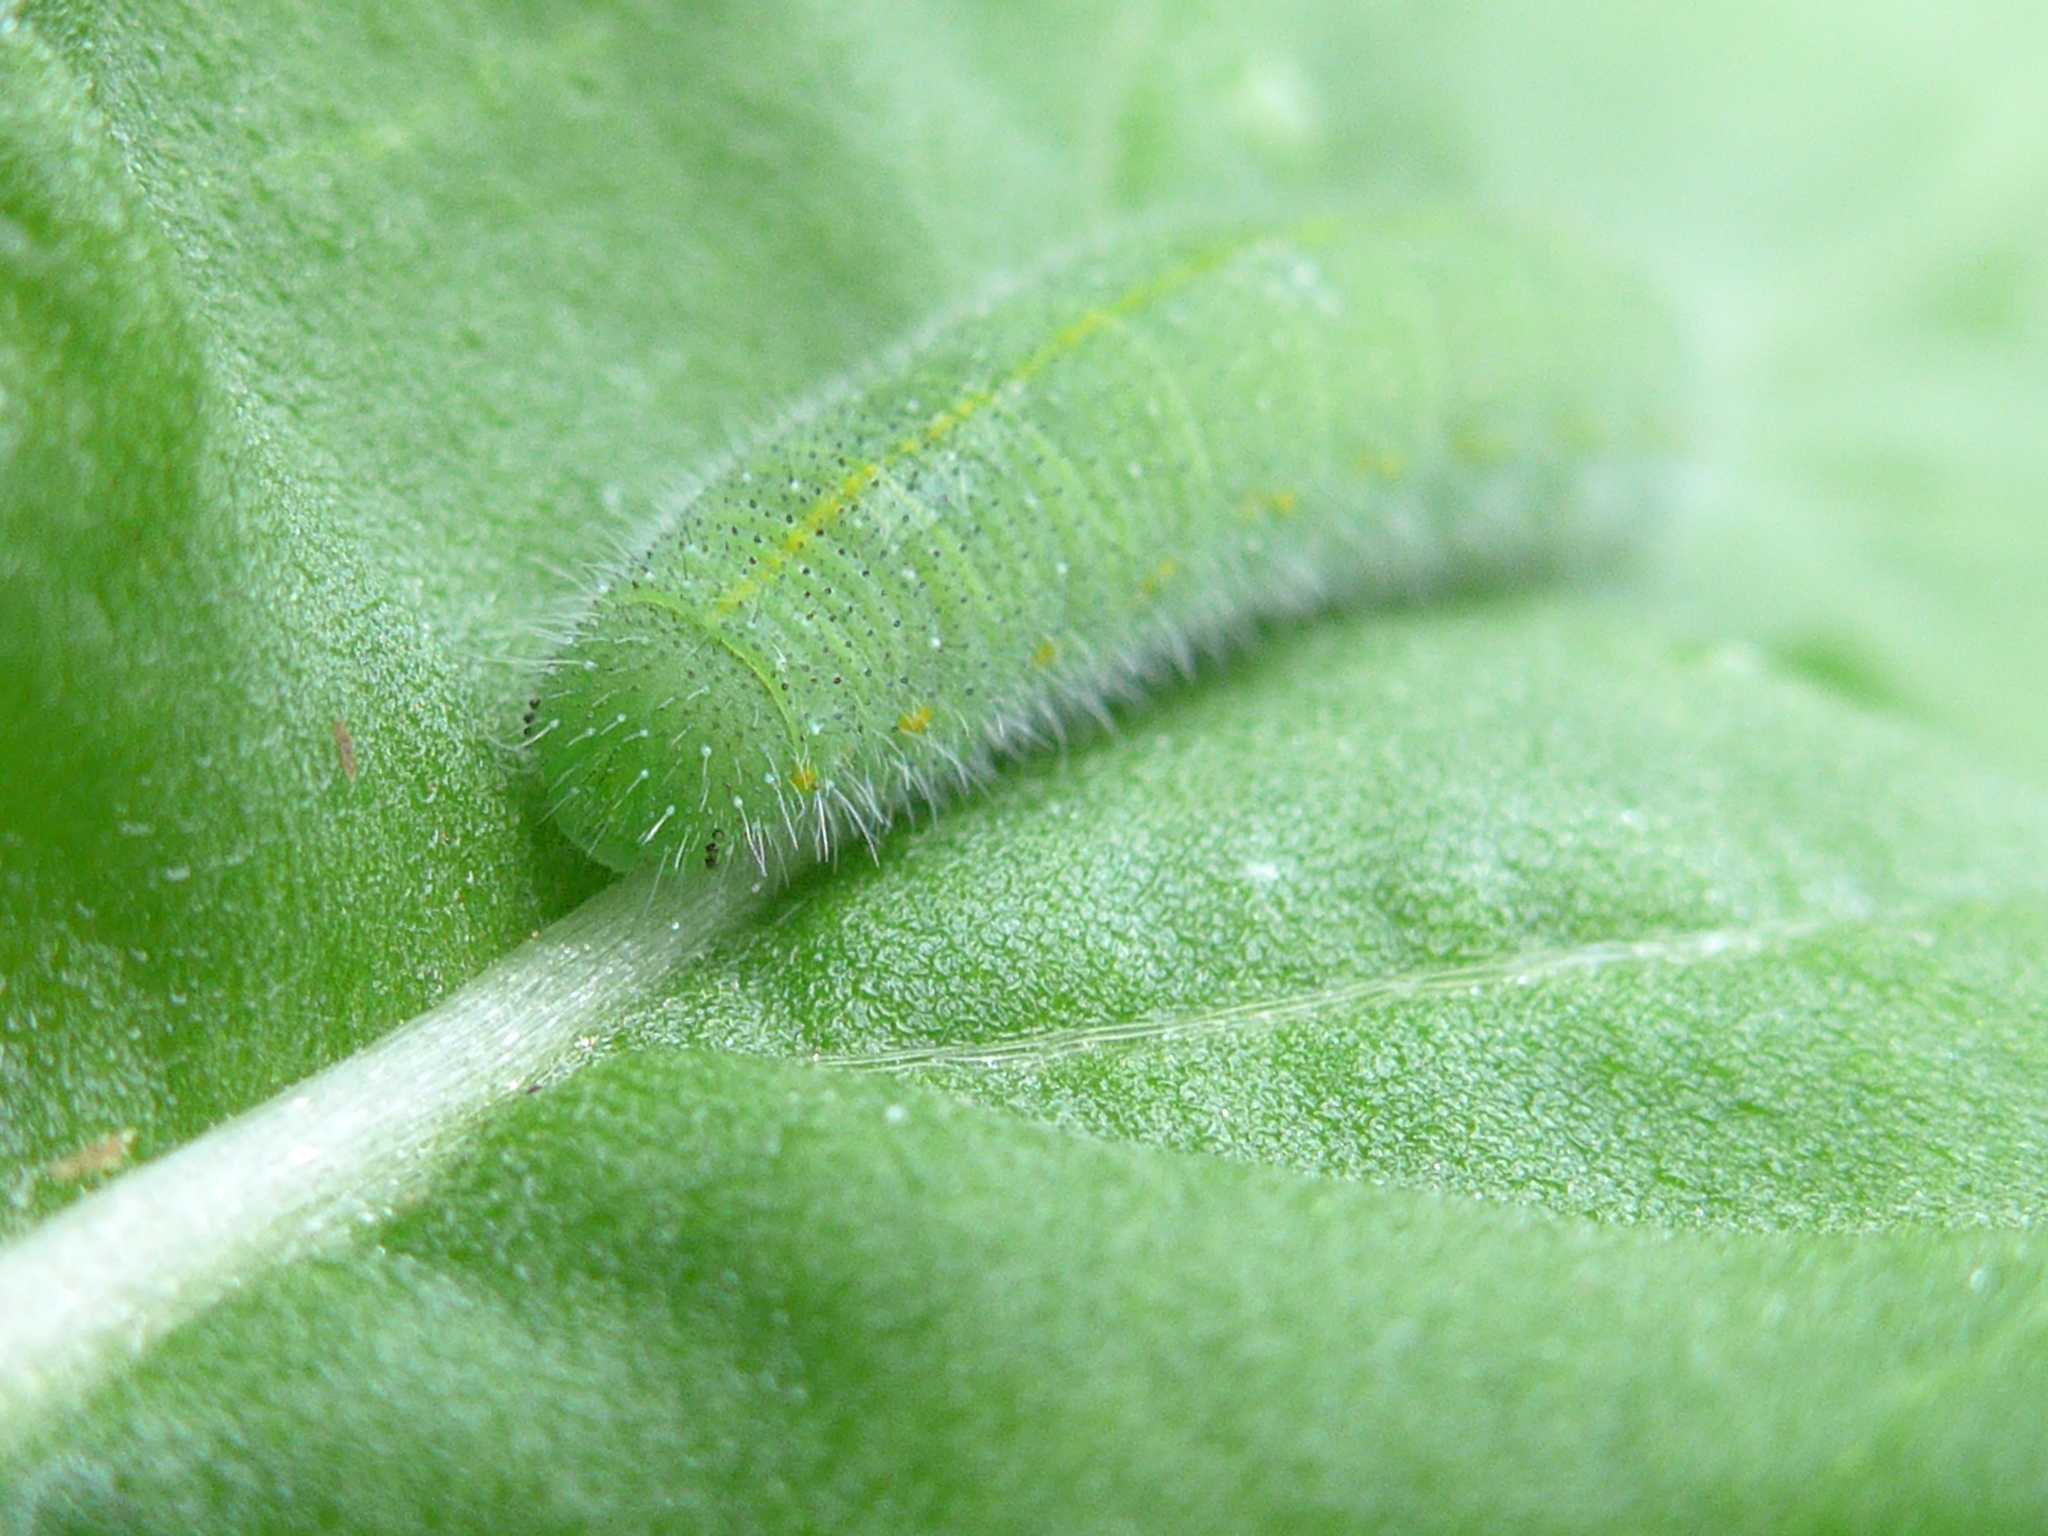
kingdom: Animalia
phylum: Arthropoda
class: Insecta
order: Lepidoptera
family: Pieridae
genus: Pieris
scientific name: Pieris rapae
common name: Small white
